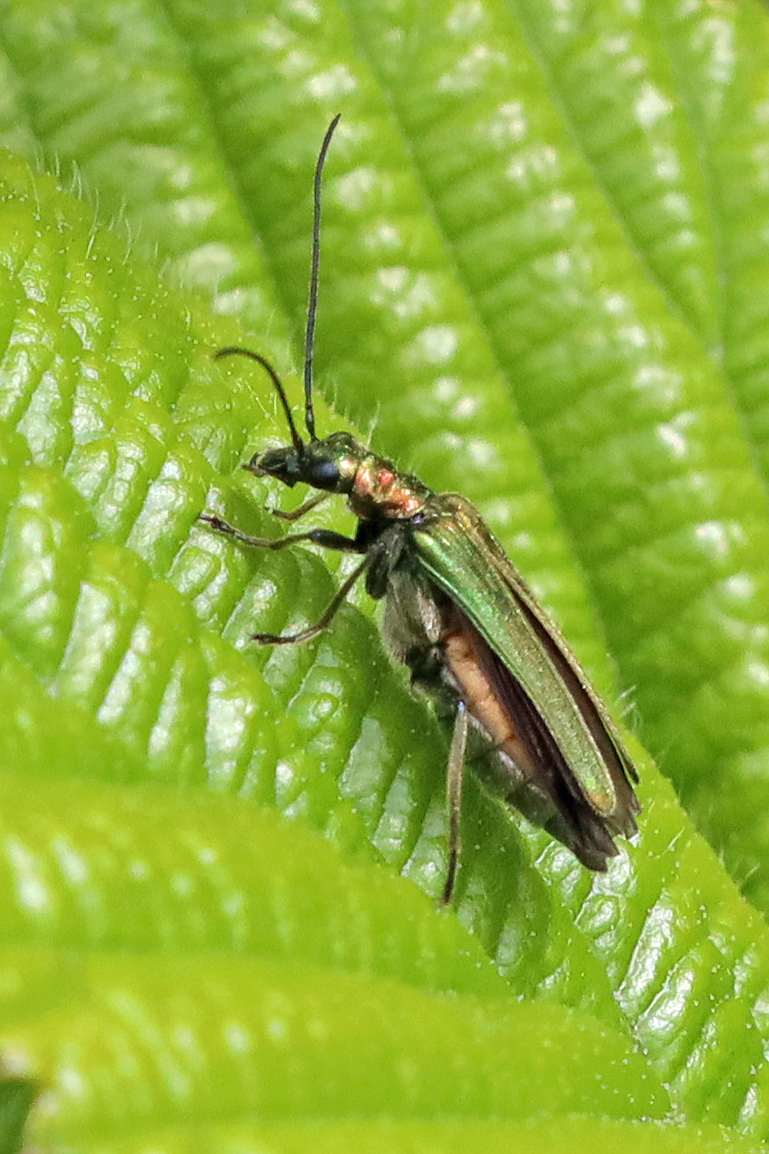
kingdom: Animalia
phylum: Arthropoda
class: Insecta
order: Coleoptera
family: Oedemeridae
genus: Oedemera
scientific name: Oedemera nobilis
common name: Swollen-thighed beetle
